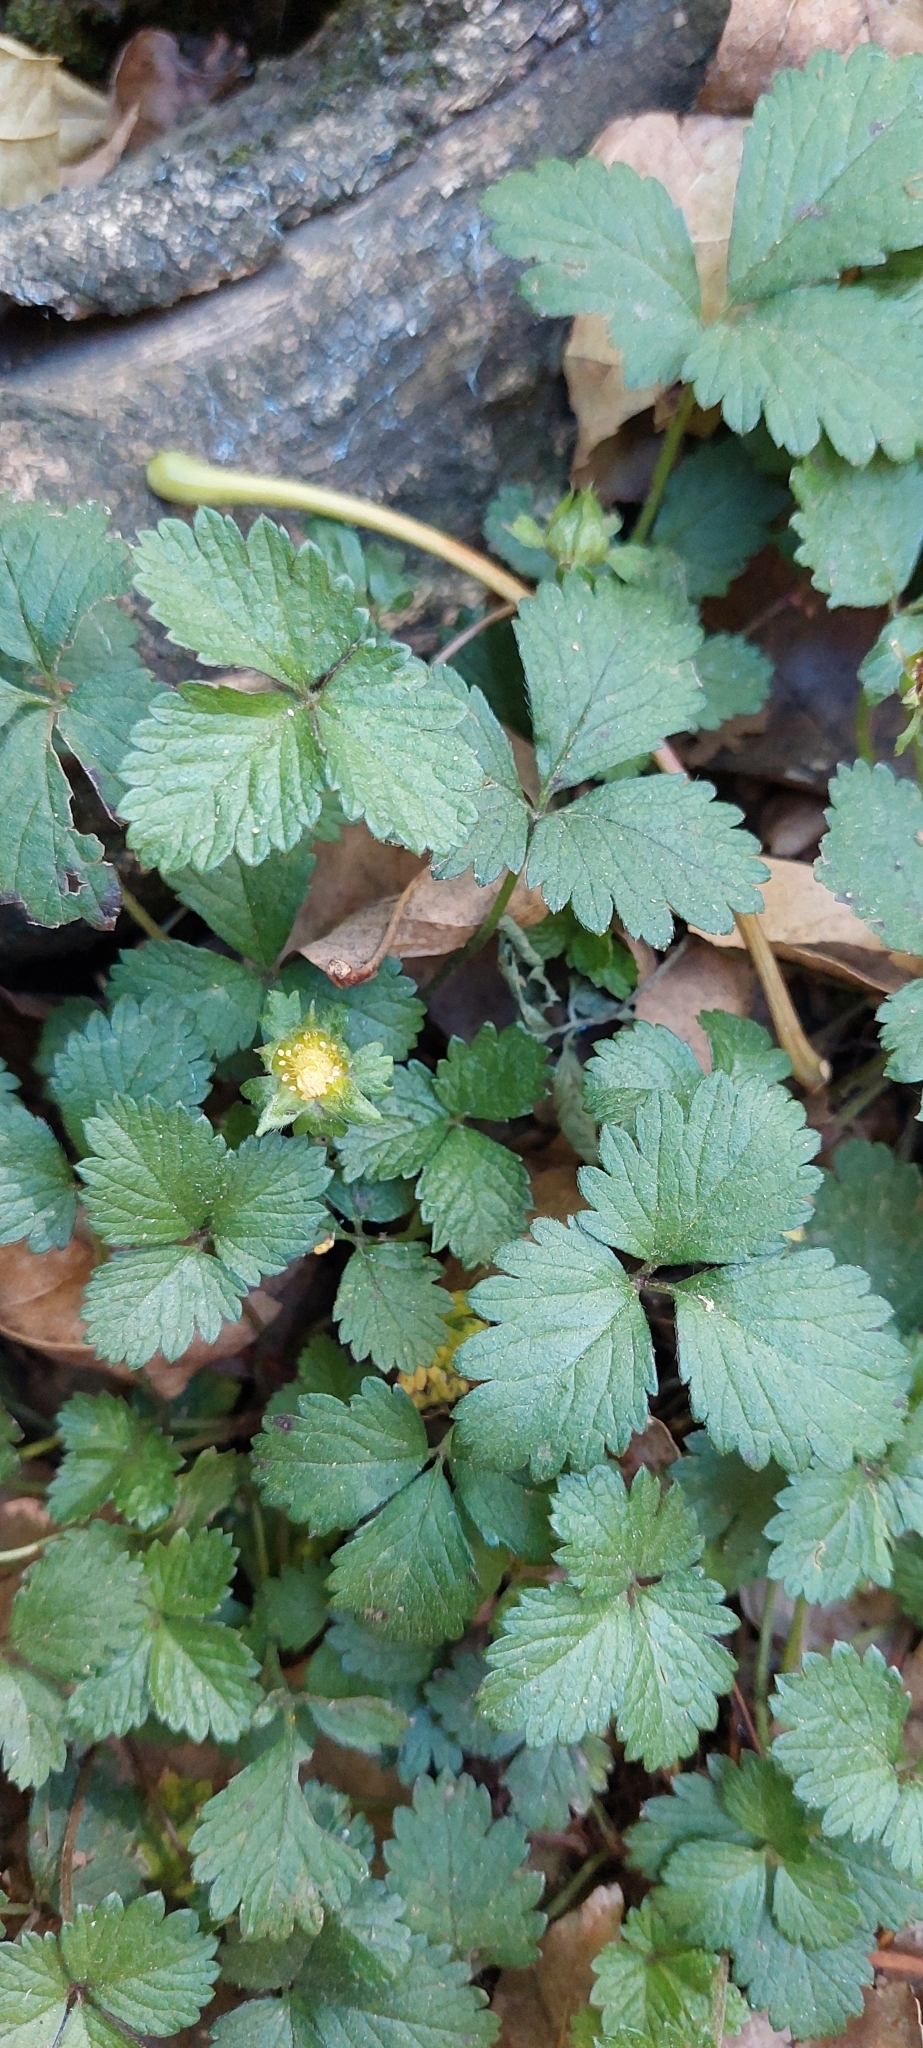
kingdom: Plantae
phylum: Tracheophyta
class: Magnoliopsida
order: Rosales
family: Rosaceae
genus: Potentilla
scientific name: Potentilla indica
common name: Yellow-flowered strawberry
